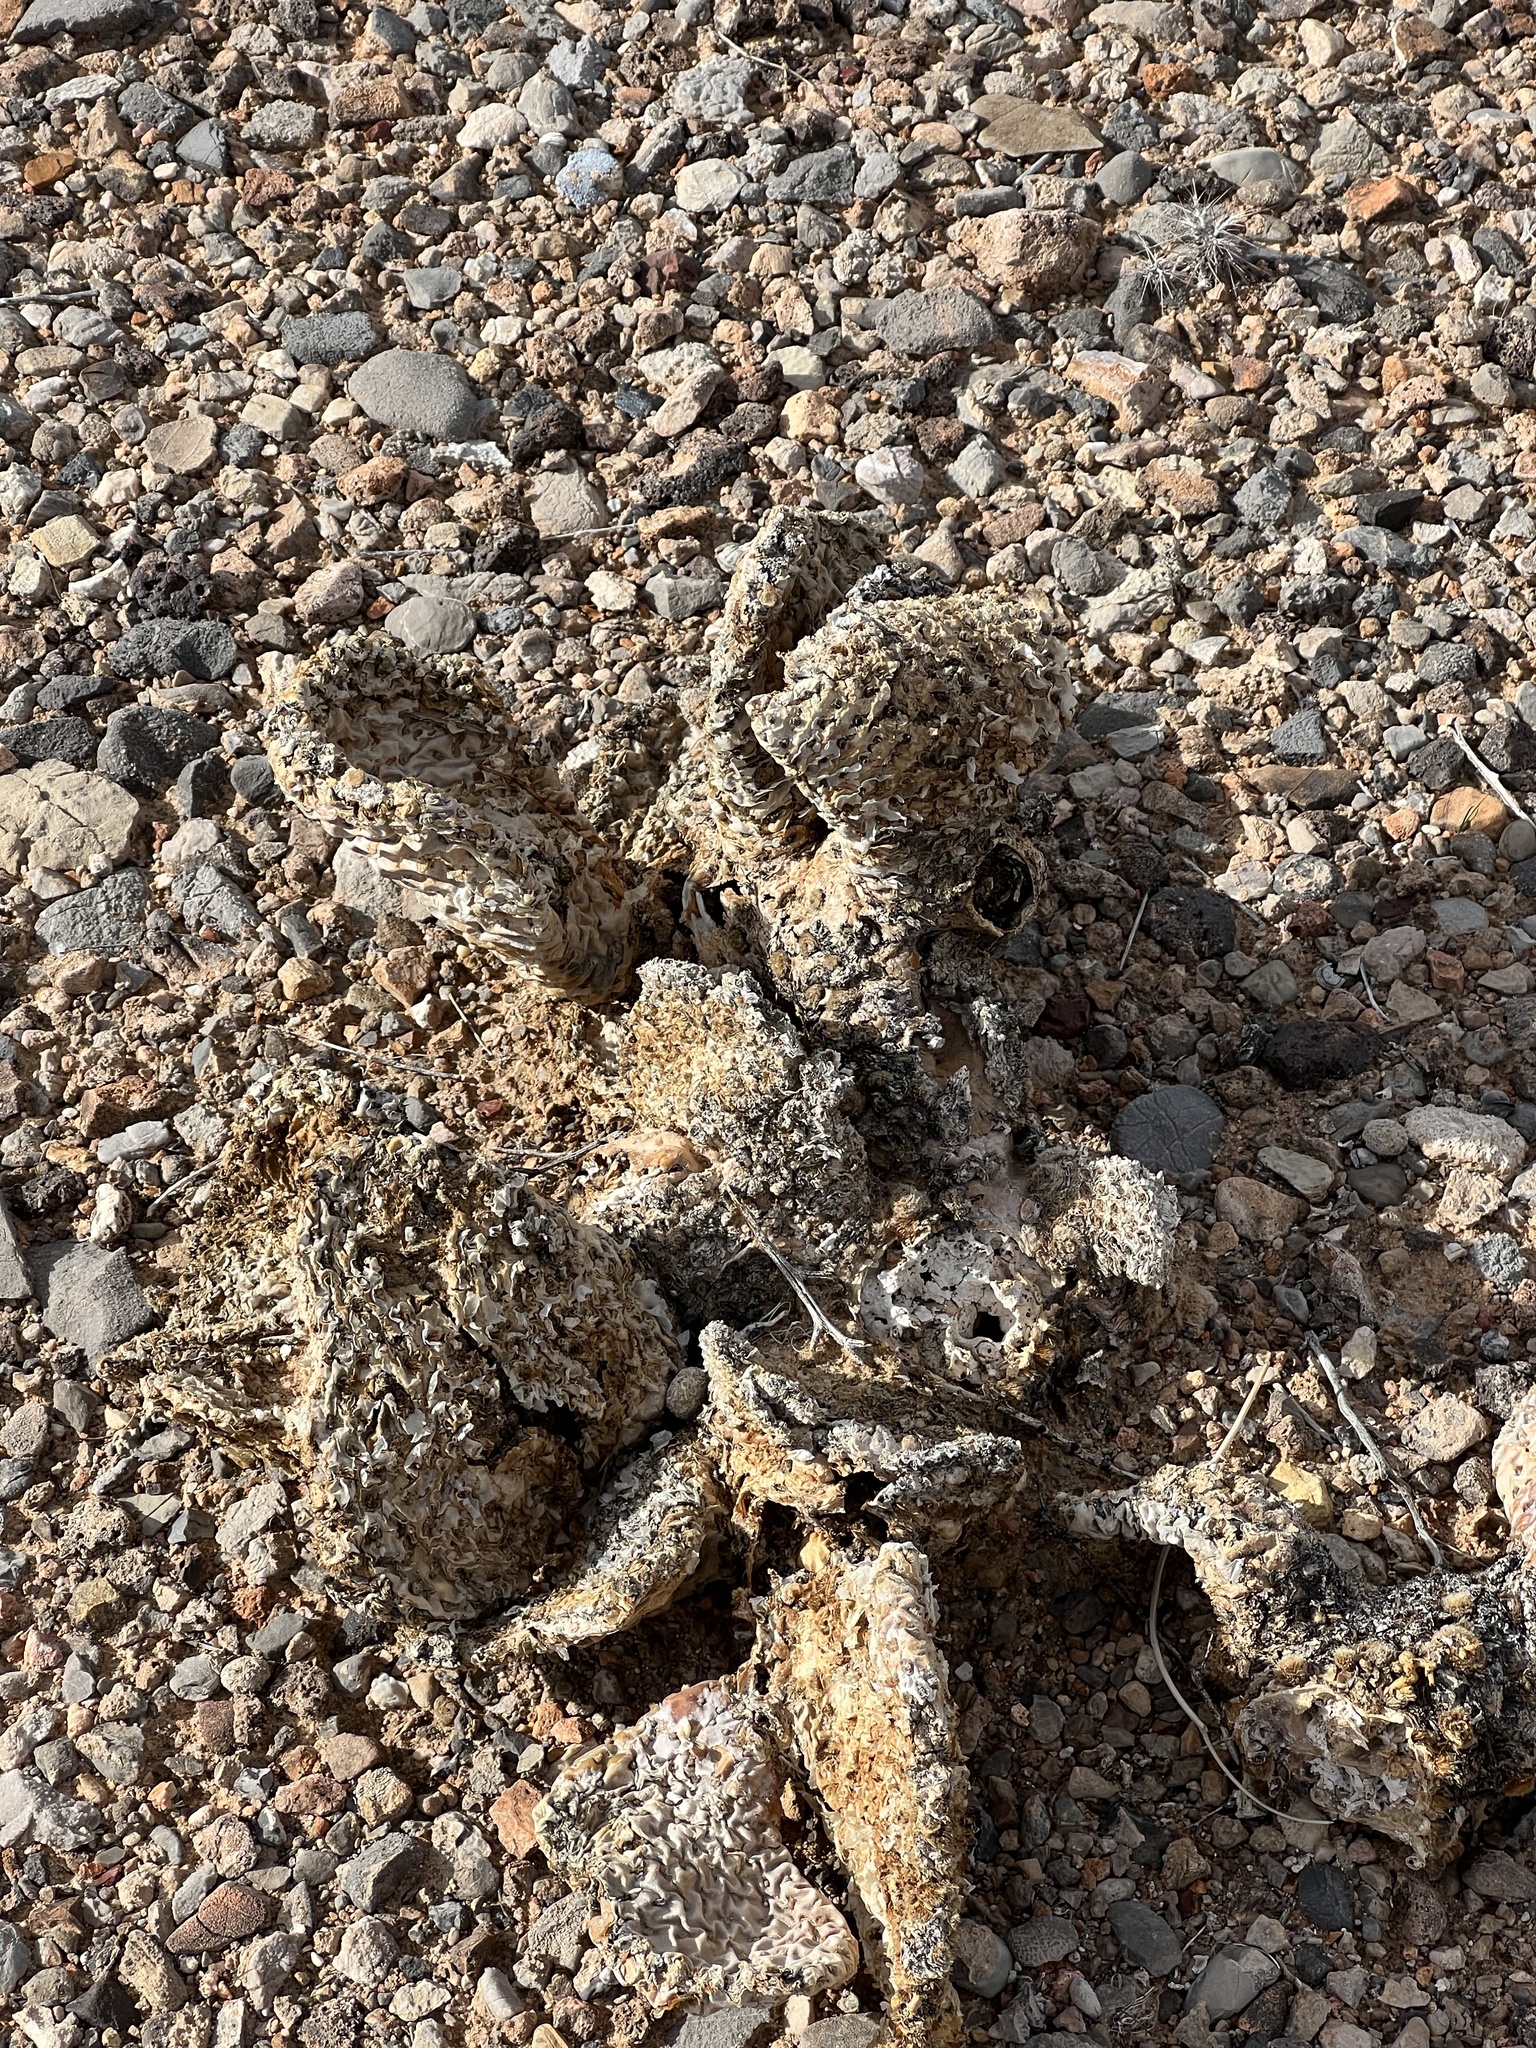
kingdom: Plantae
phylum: Tracheophyta
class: Magnoliopsida
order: Caryophyllales
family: Cactaceae
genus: Opuntia
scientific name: Opuntia basilaris
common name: Beavertail prickly-pear
